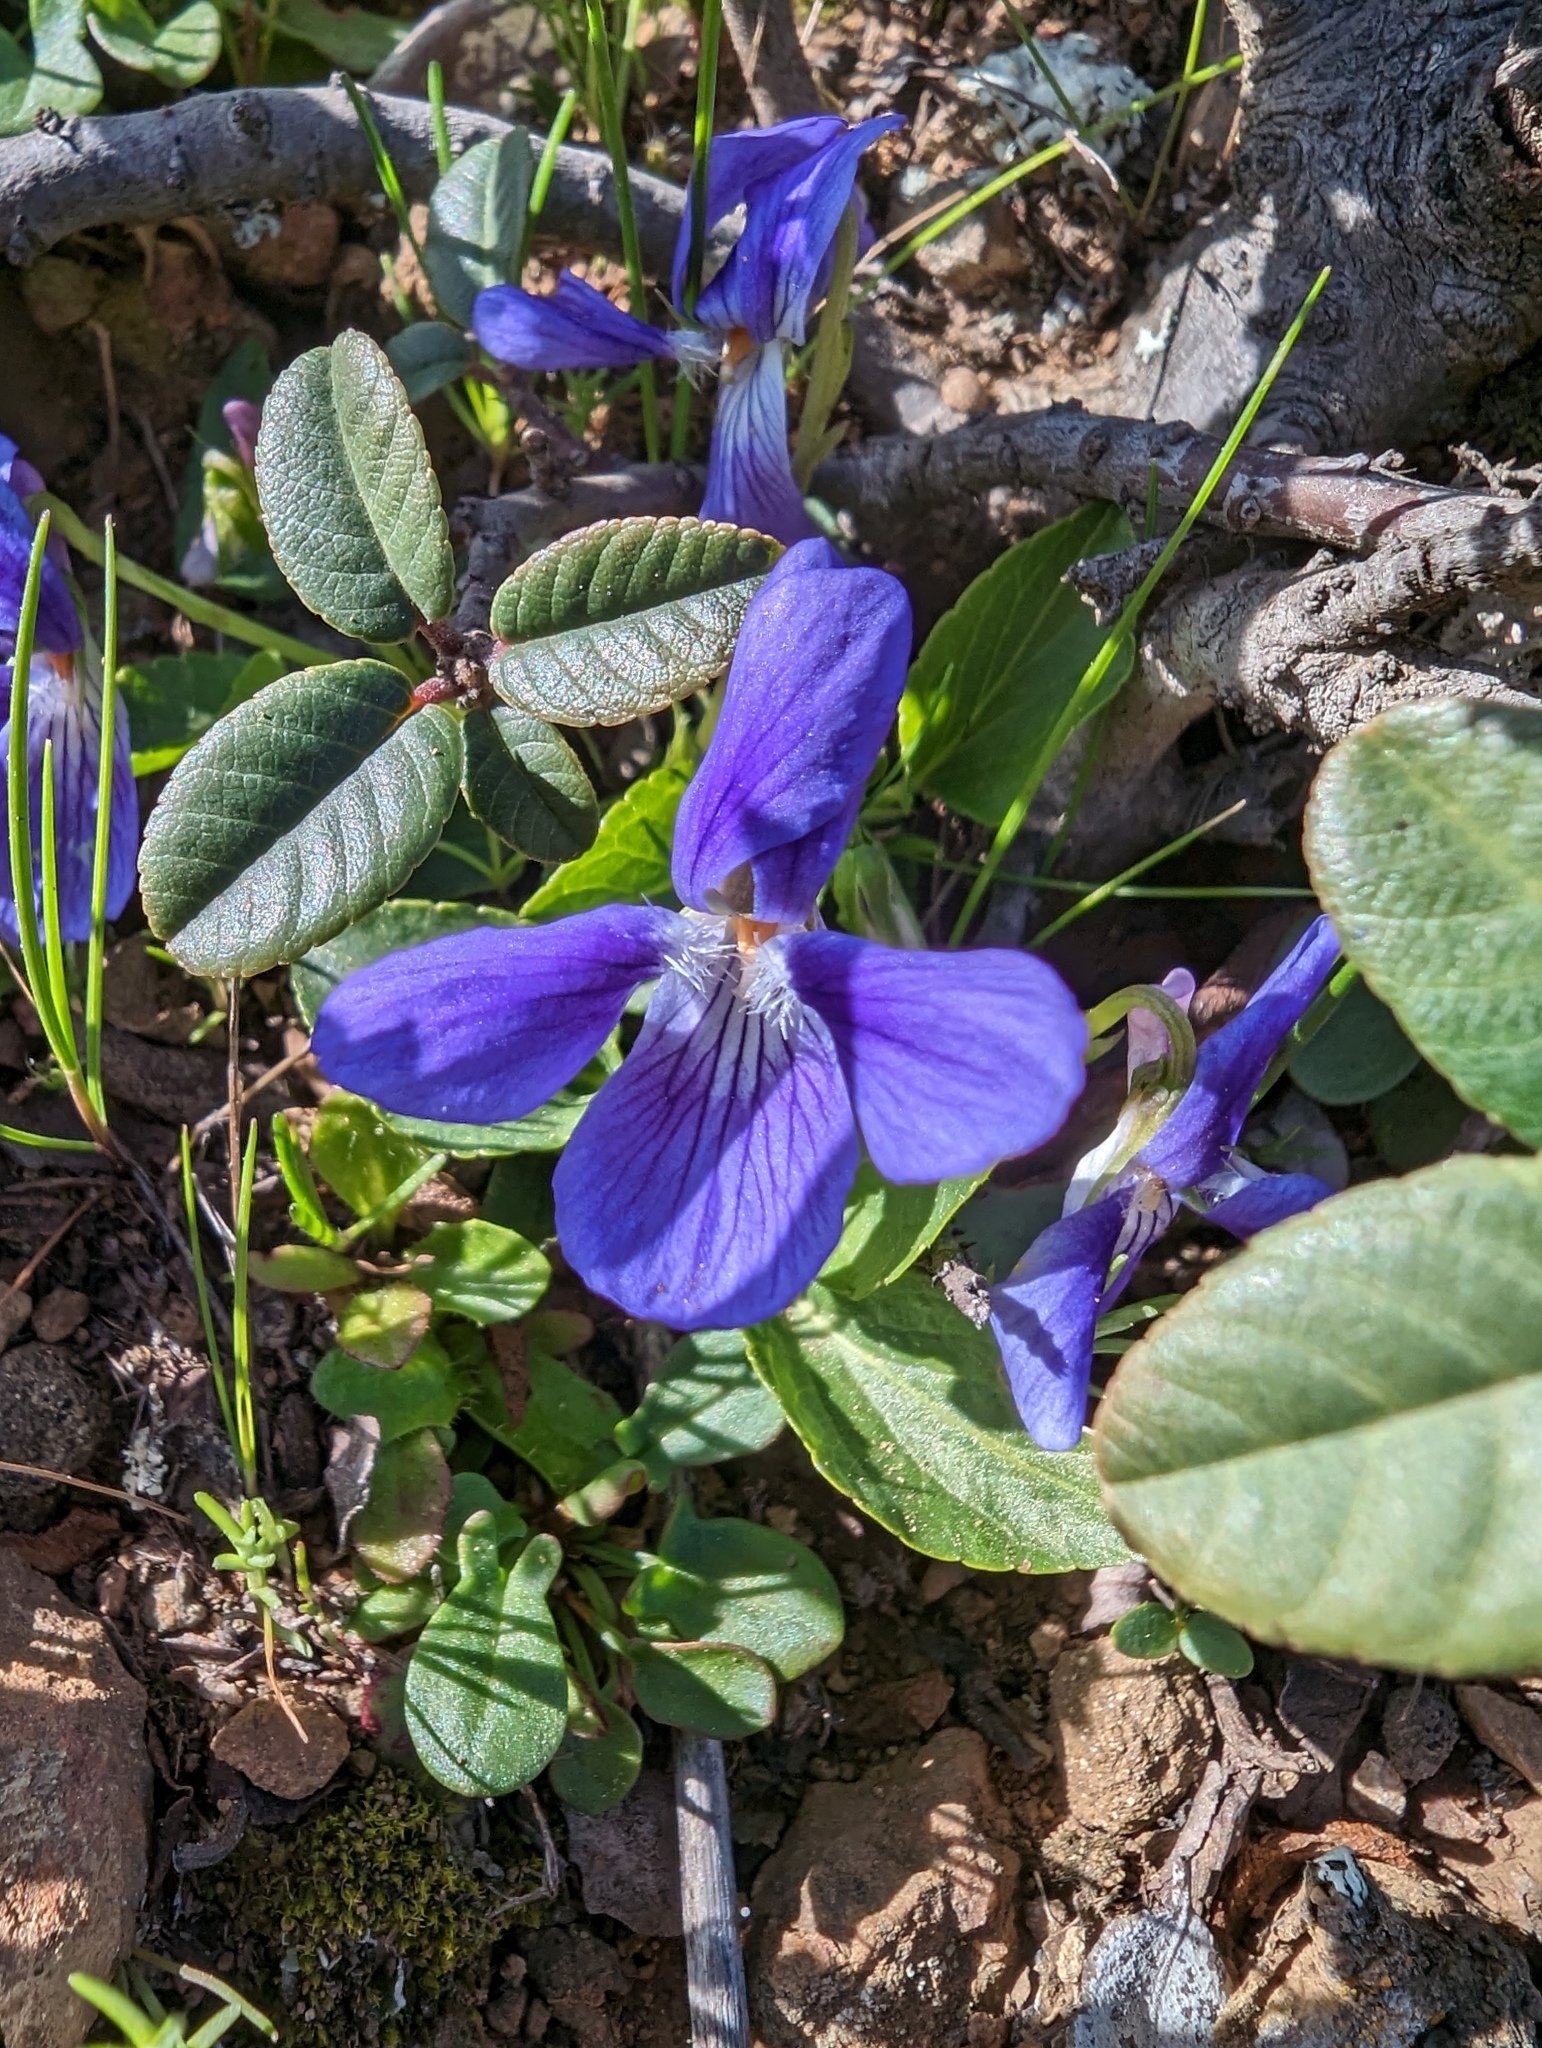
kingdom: Plantae
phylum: Tracheophyta
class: Magnoliopsida
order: Malpighiales
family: Violaceae
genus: Viola
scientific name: Viola adunca
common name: Sand violet
